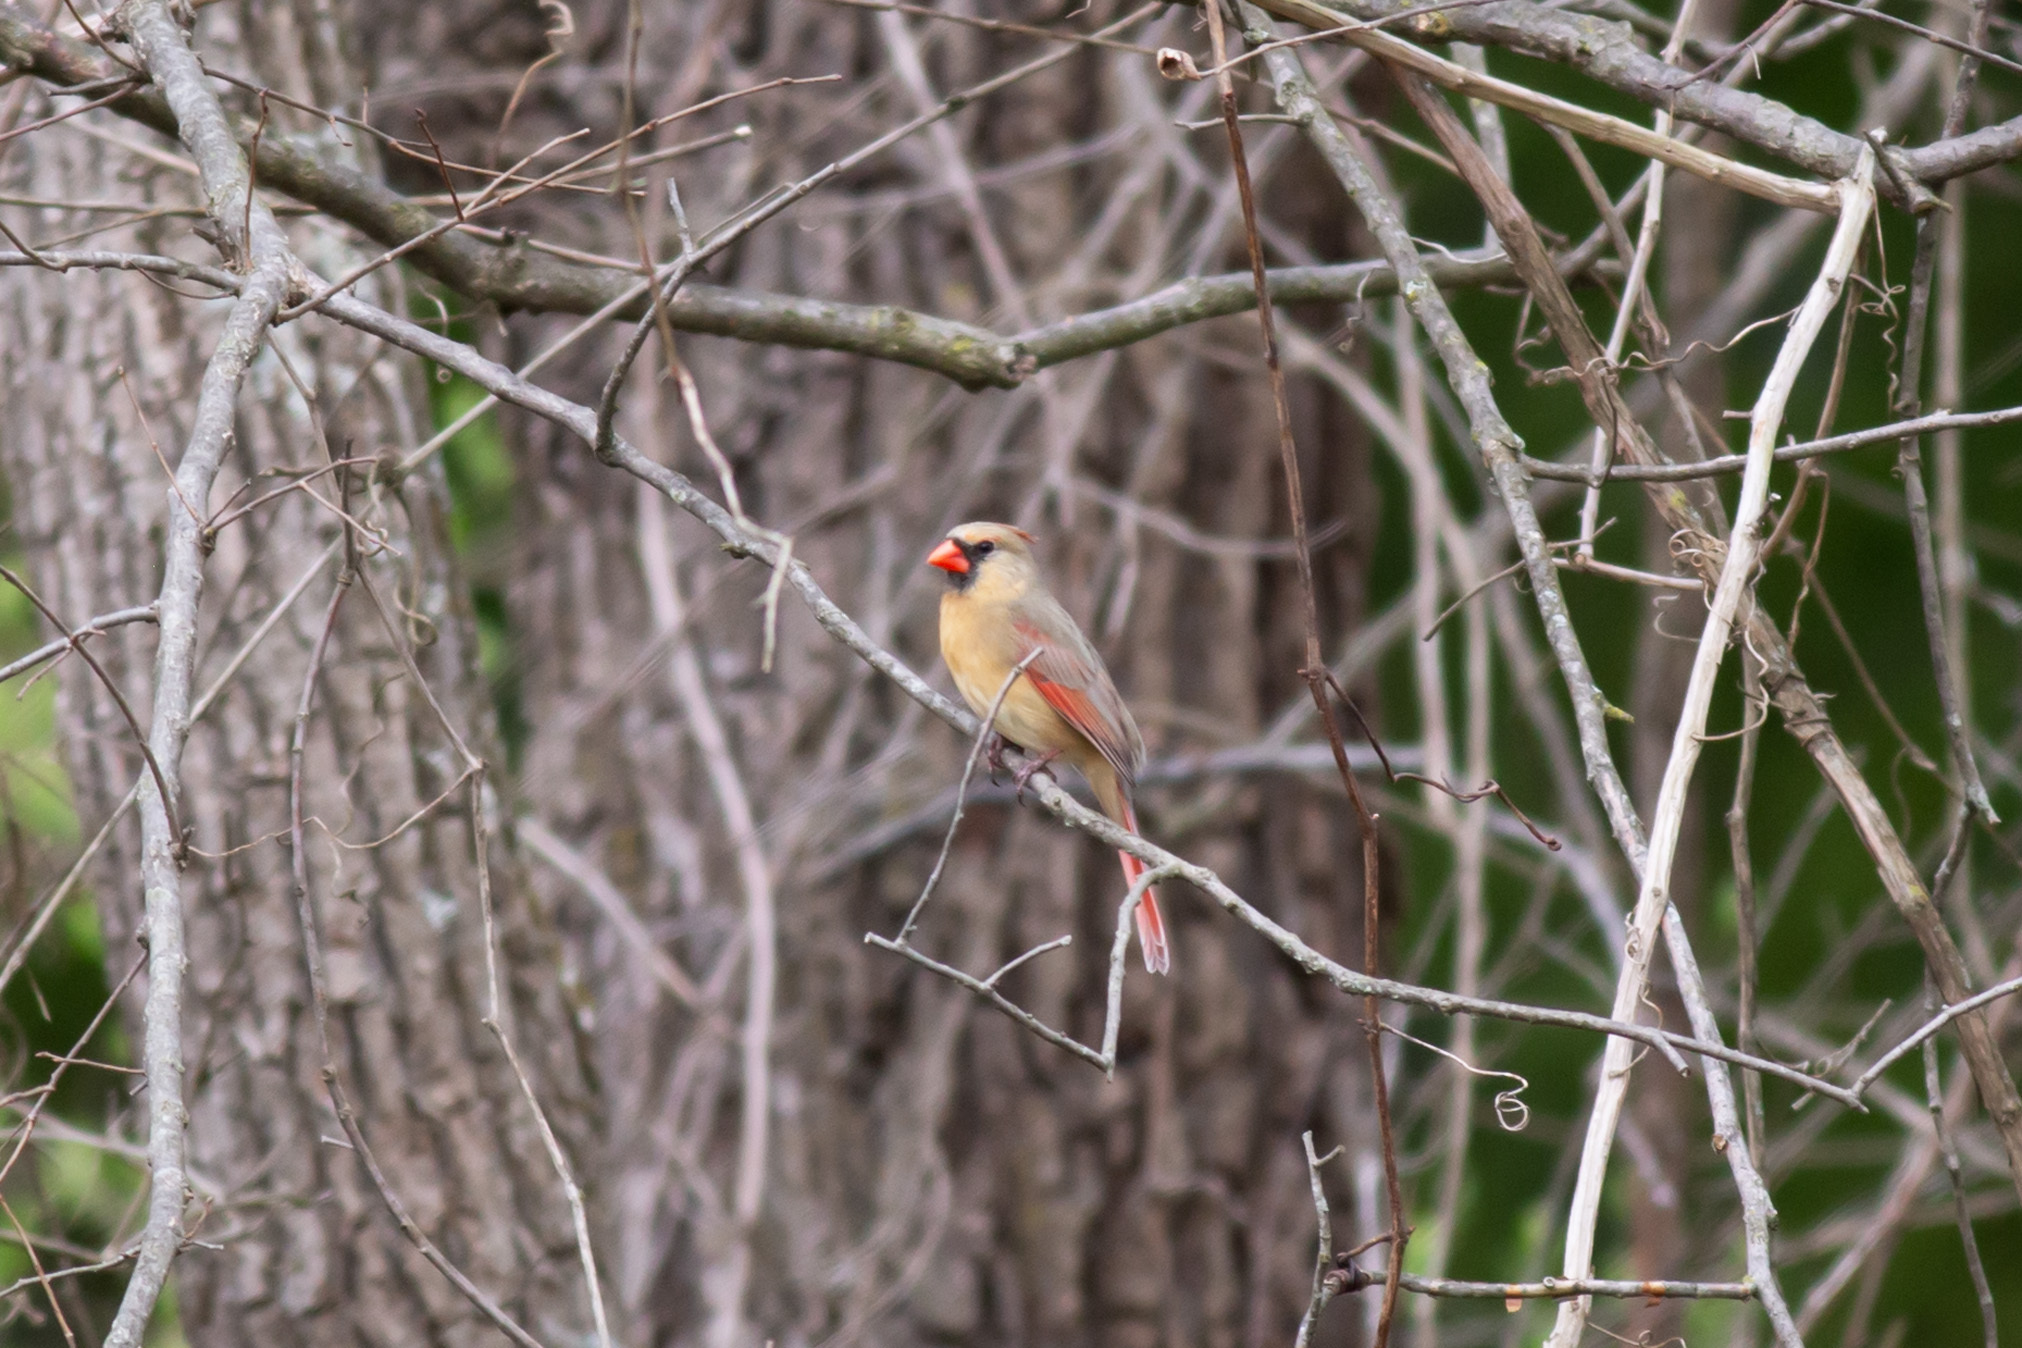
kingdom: Animalia
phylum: Chordata
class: Aves
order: Passeriformes
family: Cardinalidae
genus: Cardinalis
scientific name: Cardinalis cardinalis
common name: Northern cardinal
